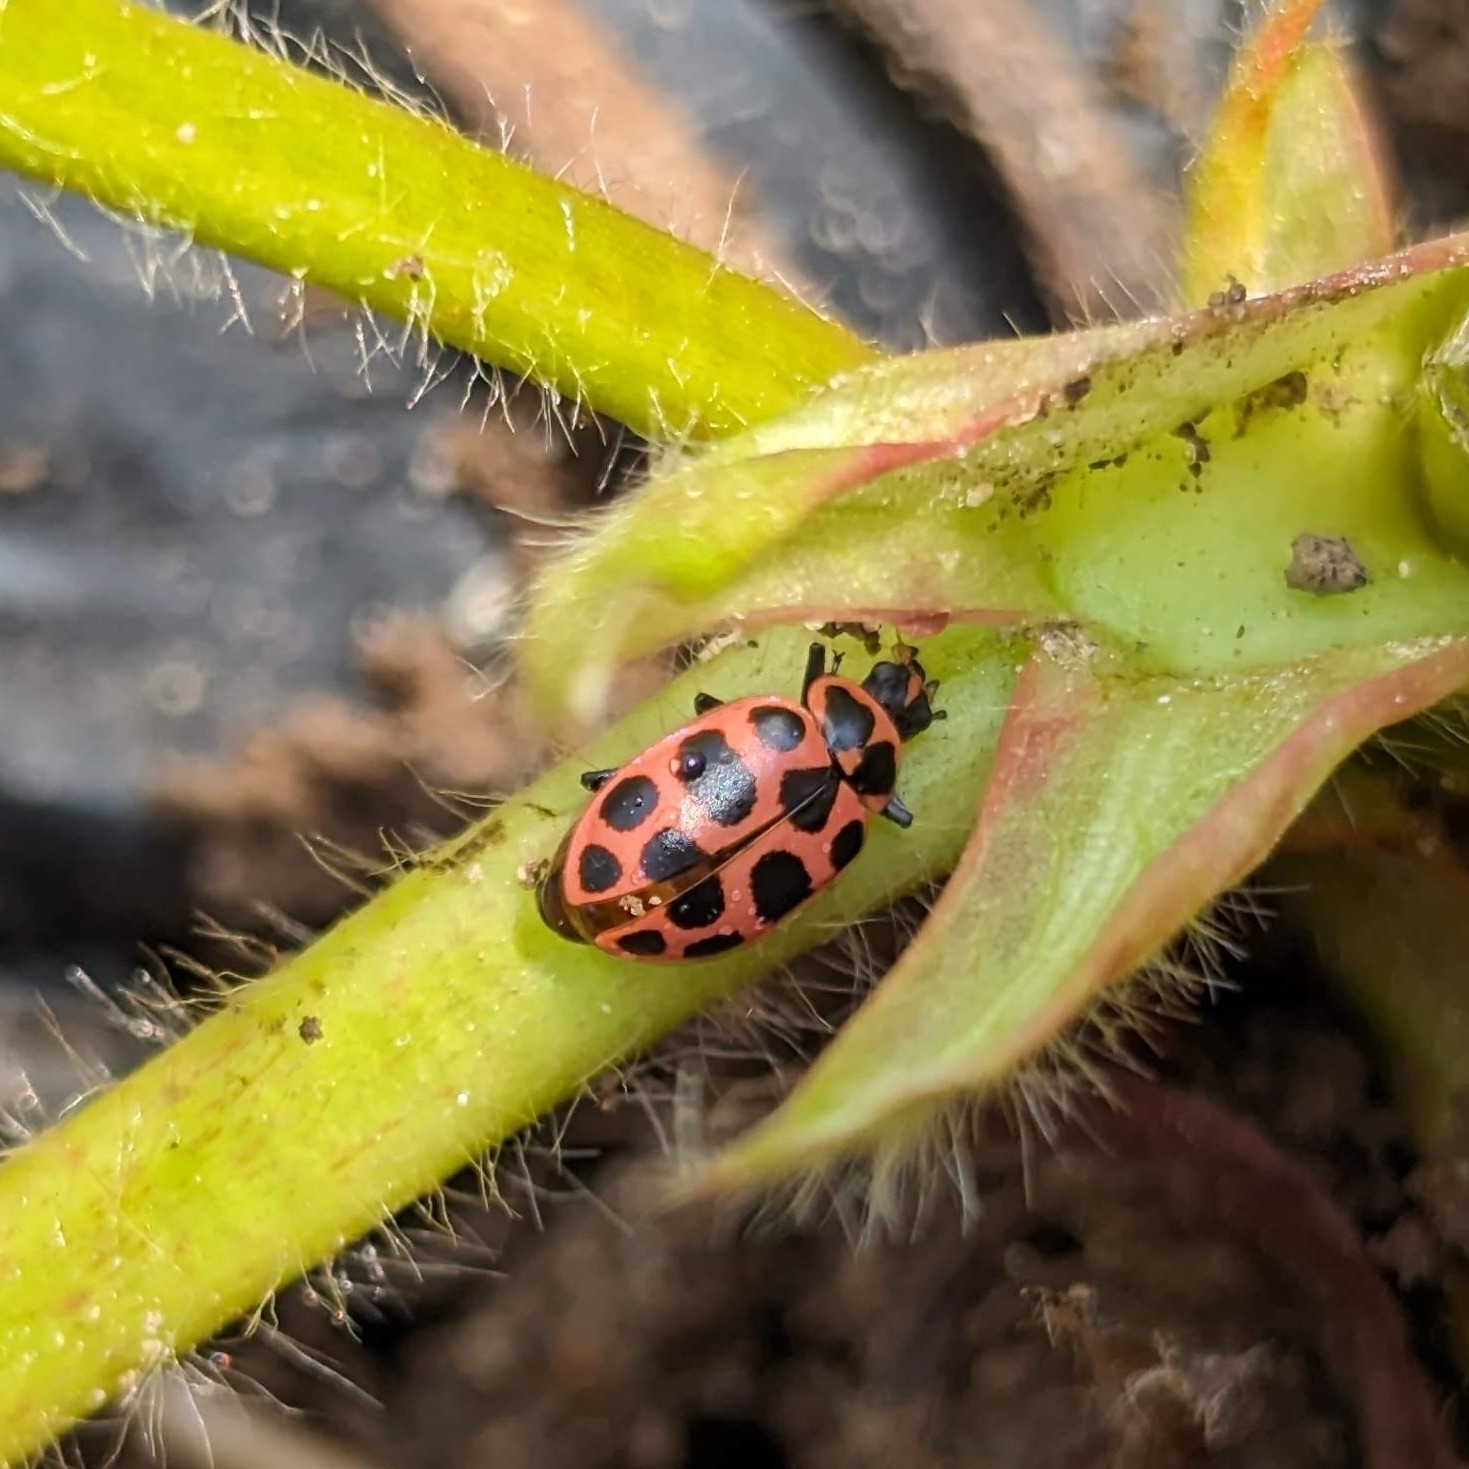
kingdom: Animalia
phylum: Arthropoda
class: Insecta
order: Coleoptera
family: Coccinellidae
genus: Coleomegilla
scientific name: Coleomegilla maculata
